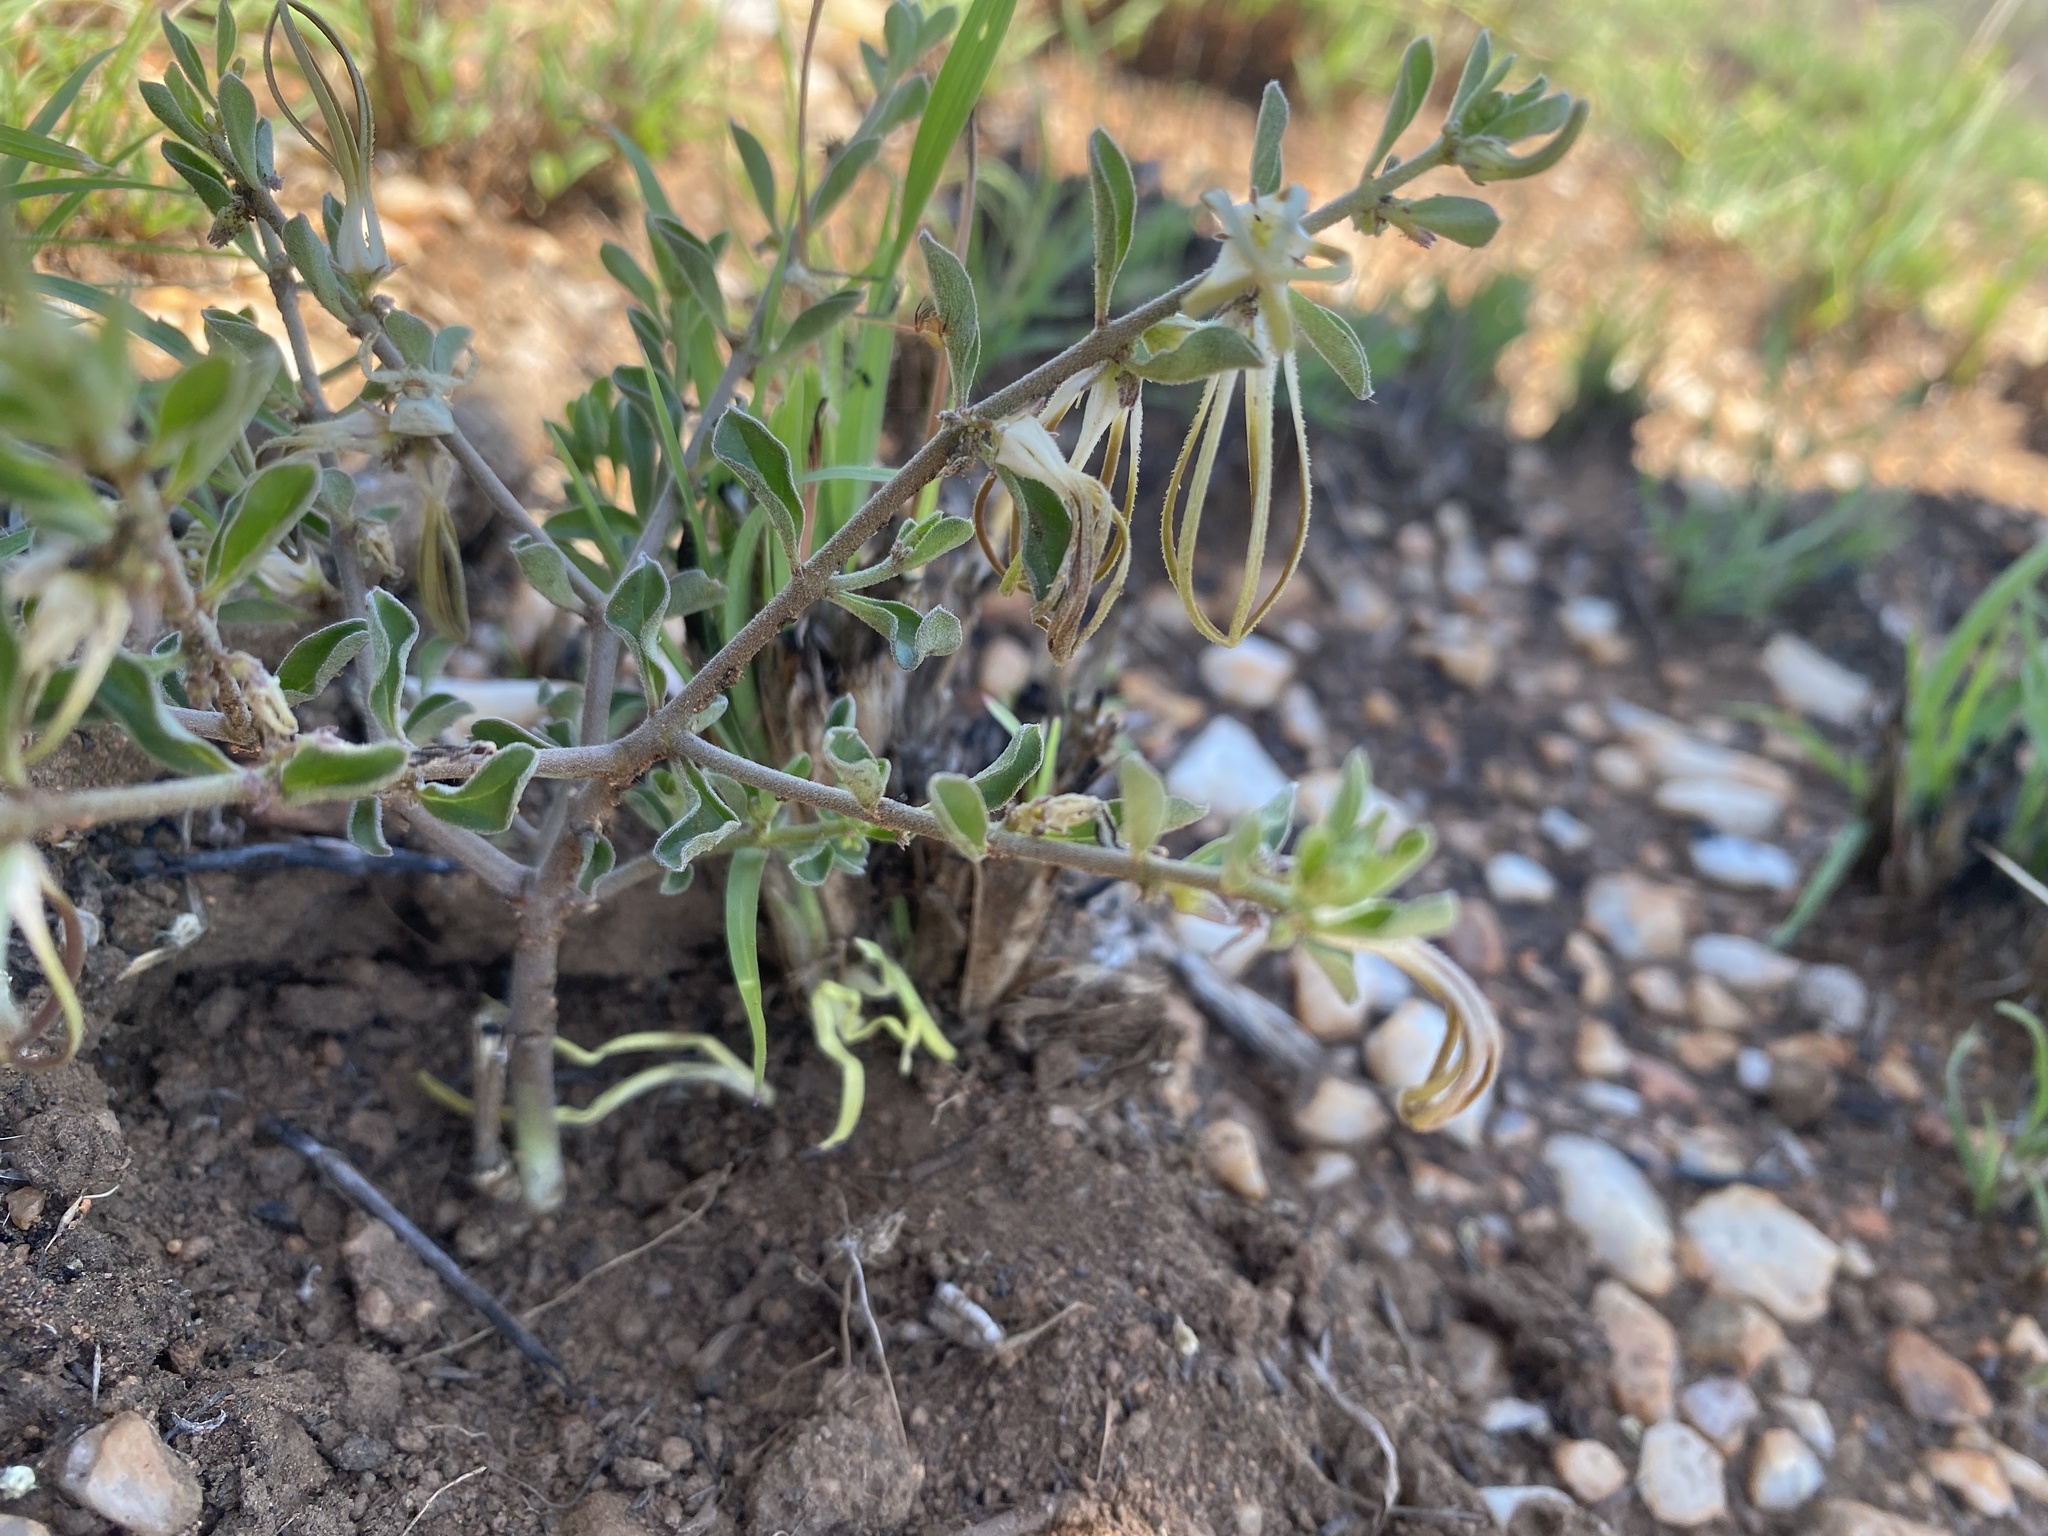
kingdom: Plantae
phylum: Tracheophyta
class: Magnoliopsida
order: Gentianales
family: Apocynaceae
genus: Ceropegia
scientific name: Ceropegia circinata
